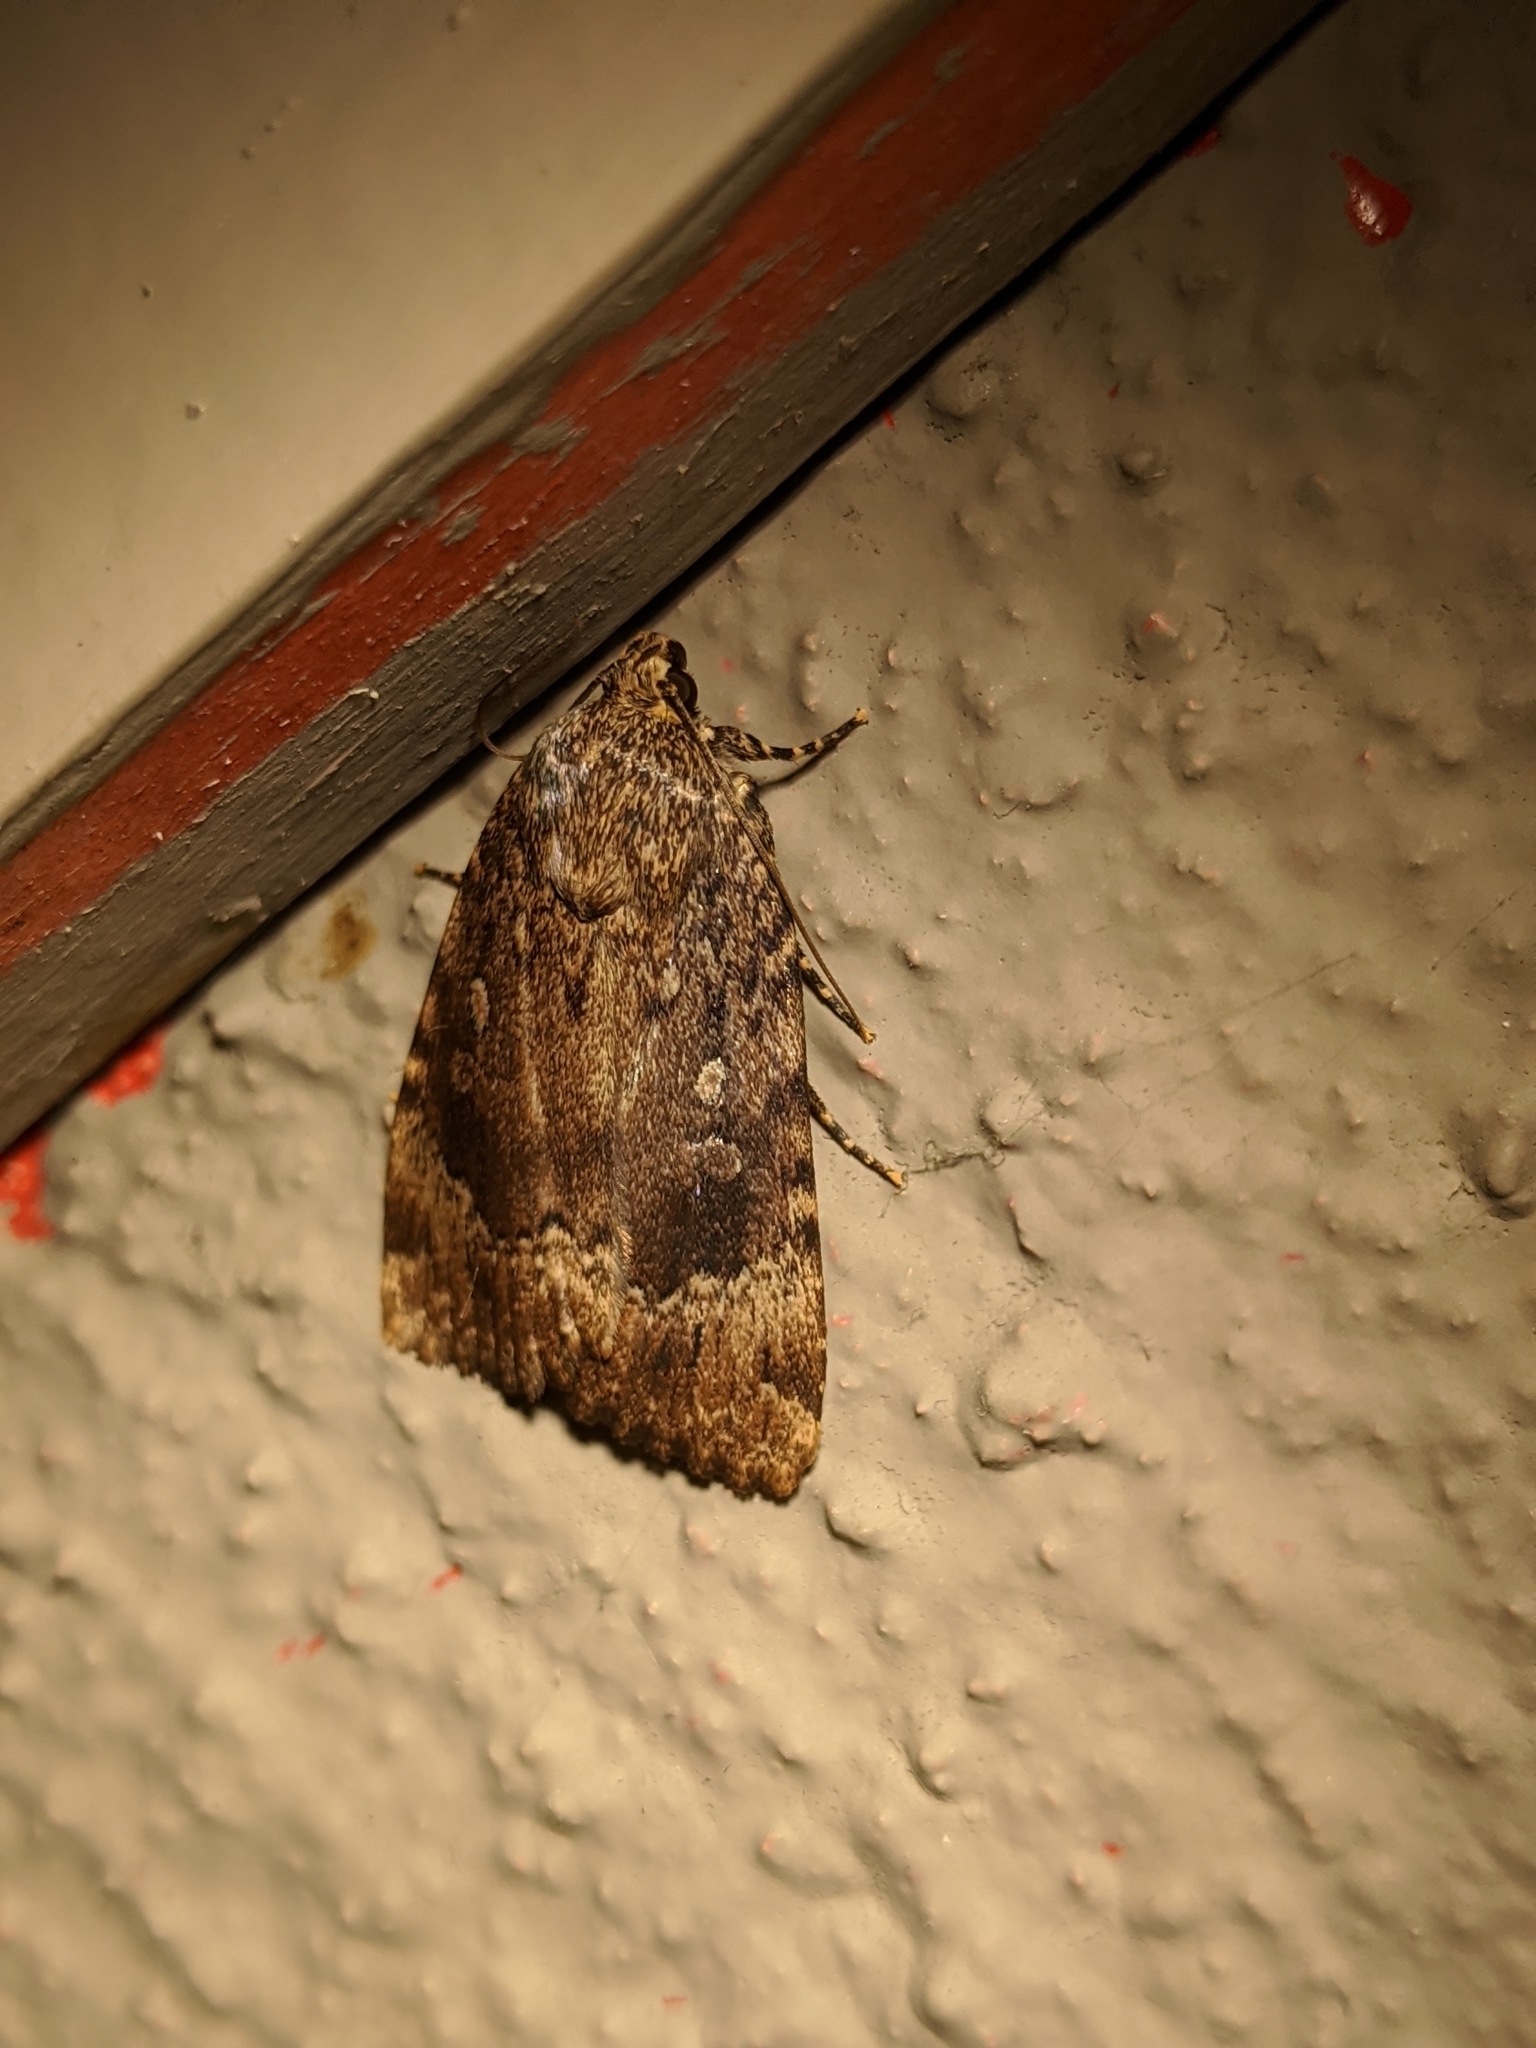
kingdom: Animalia
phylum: Arthropoda
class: Insecta
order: Lepidoptera
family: Noctuidae
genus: Amphipyra
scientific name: Amphipyra pyramidoides
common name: American copper underwing
